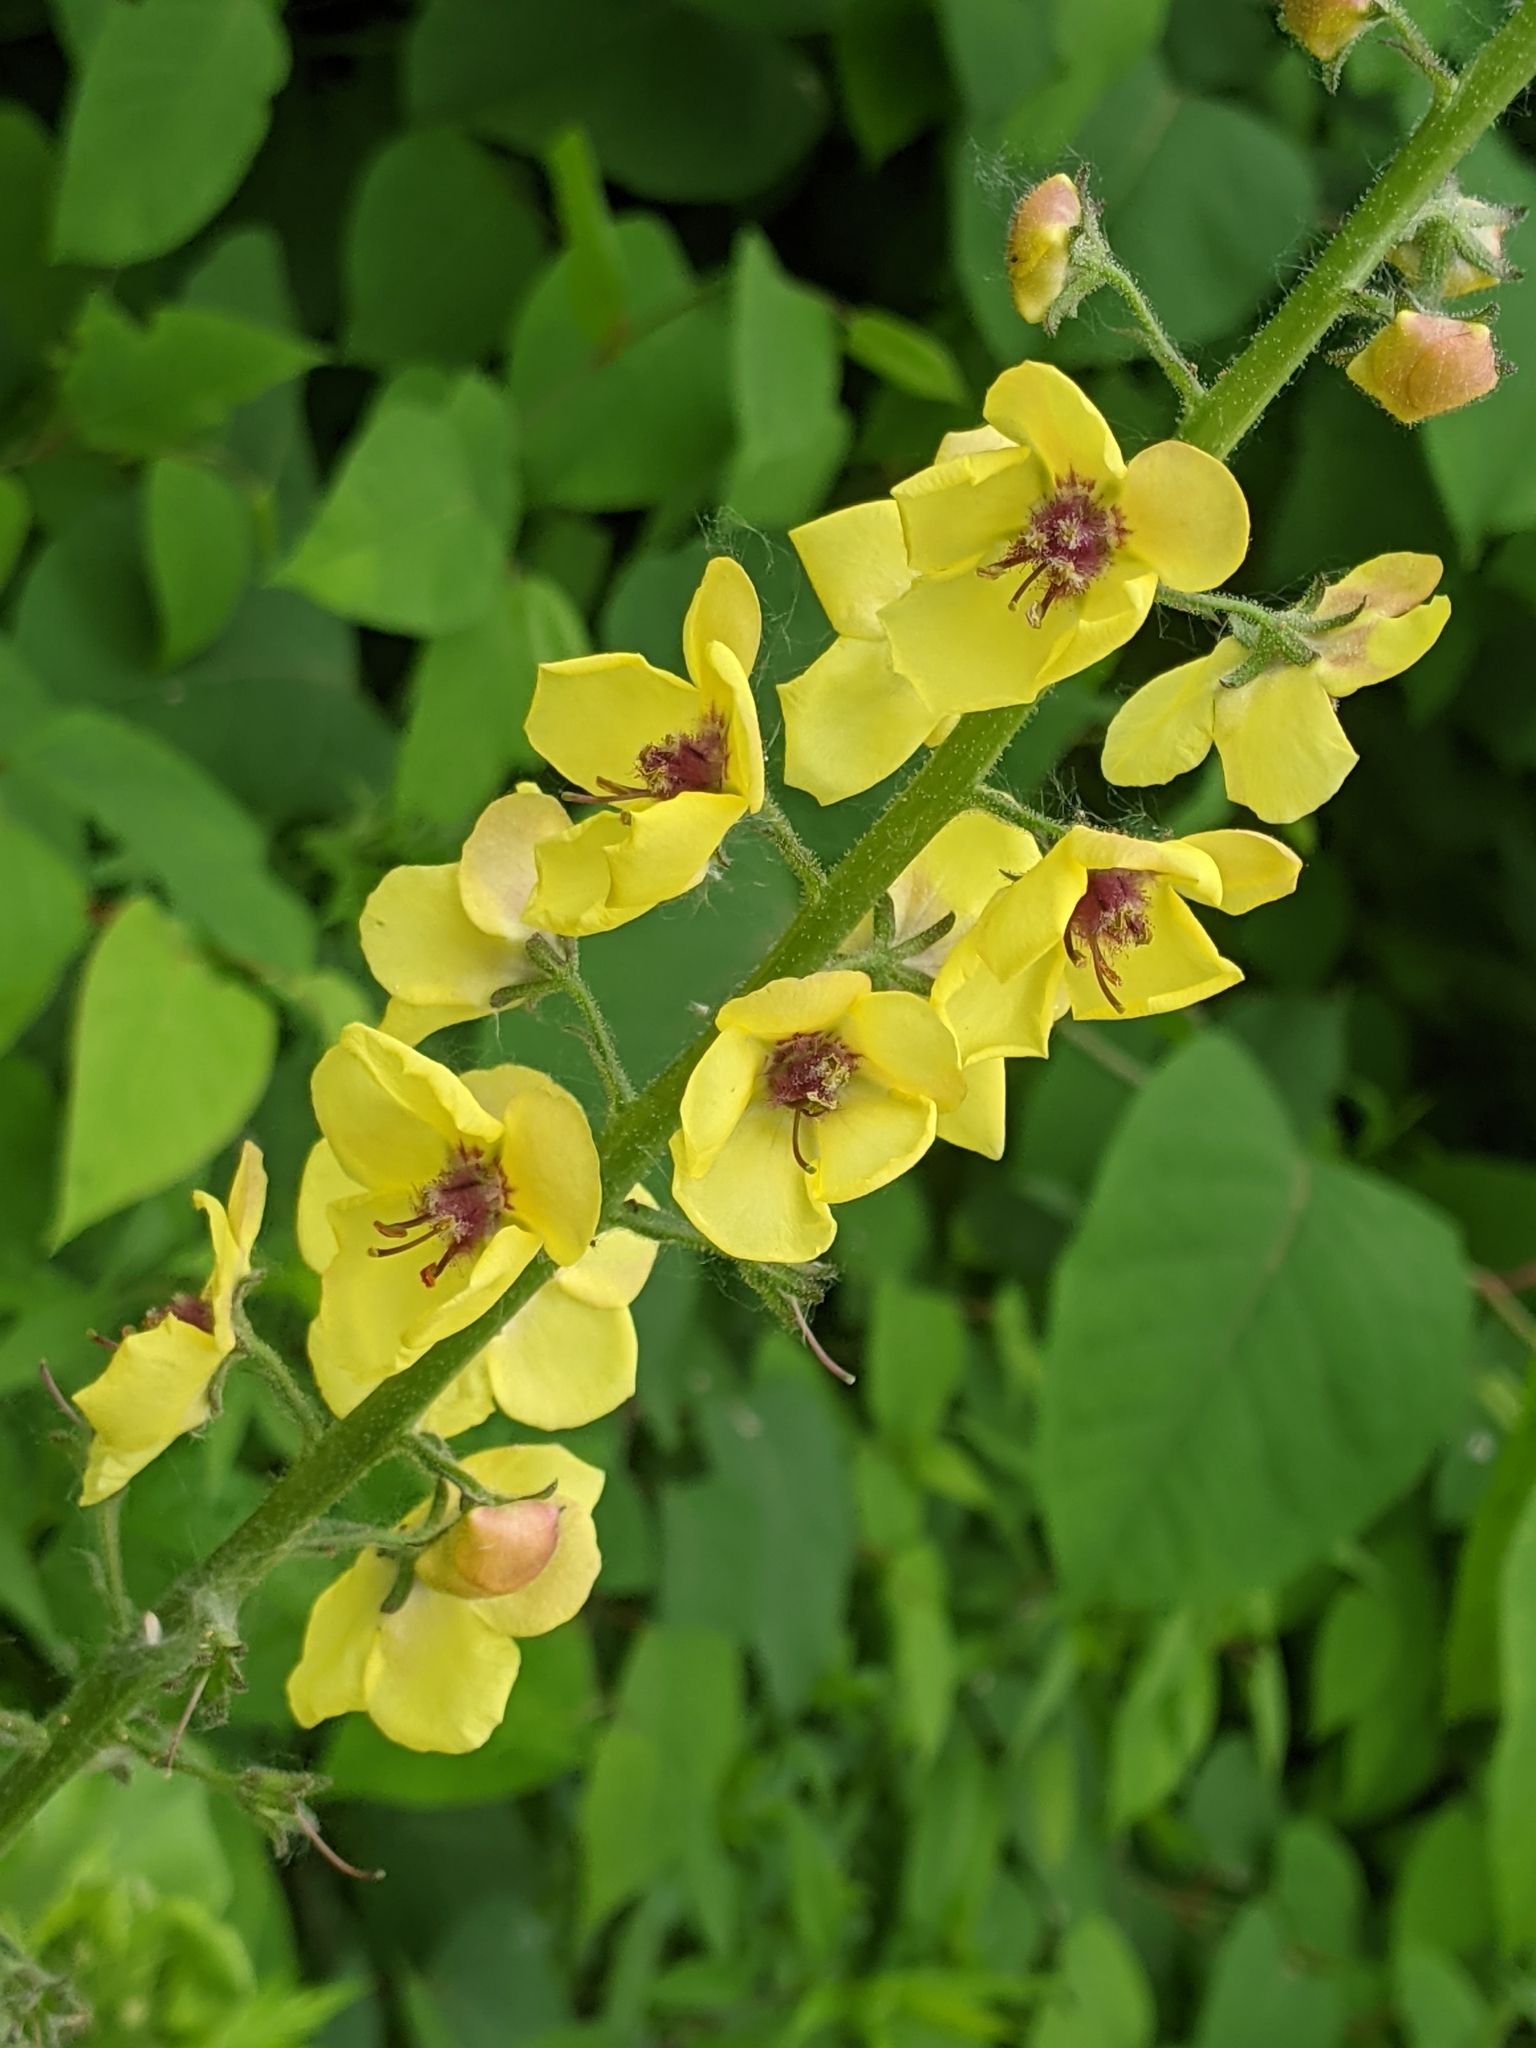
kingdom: Plantae
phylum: Tracheophyta
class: Magnoliopsida
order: Lamiales
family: Scrophulariaceae
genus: Verbascum
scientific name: Verbascum blattaria
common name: Moth mullein
